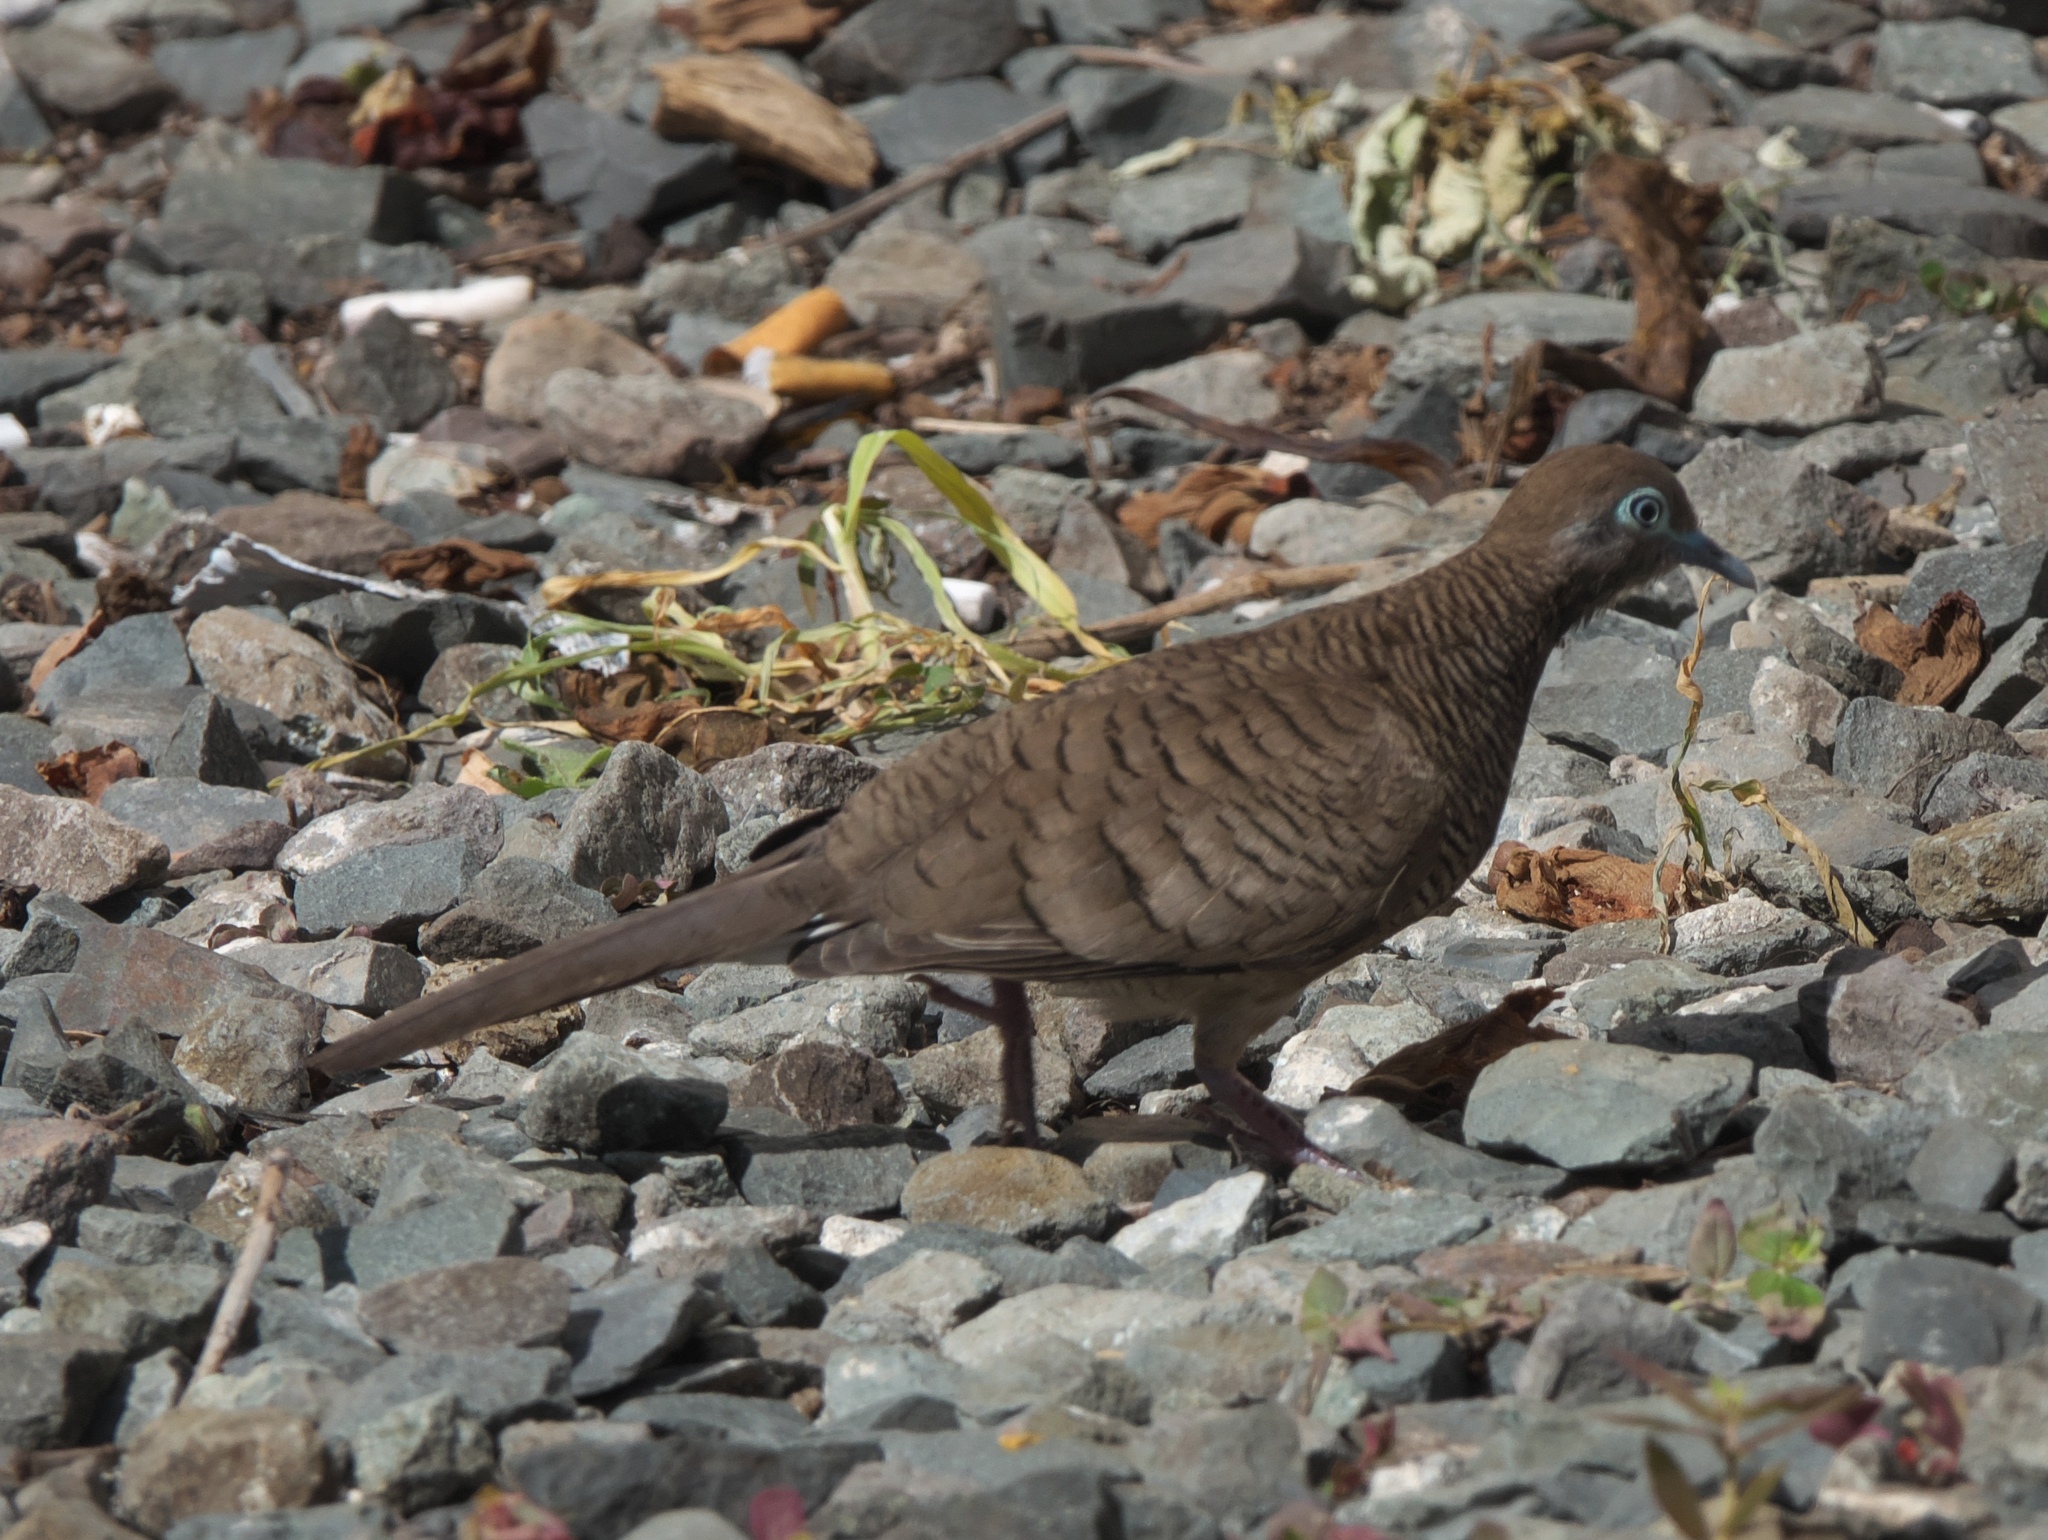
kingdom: Animalia
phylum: Chordata
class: Aves
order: Columbiformes
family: Columbidae
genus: Geopelia
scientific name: Geopelia striata
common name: Zebra dove
